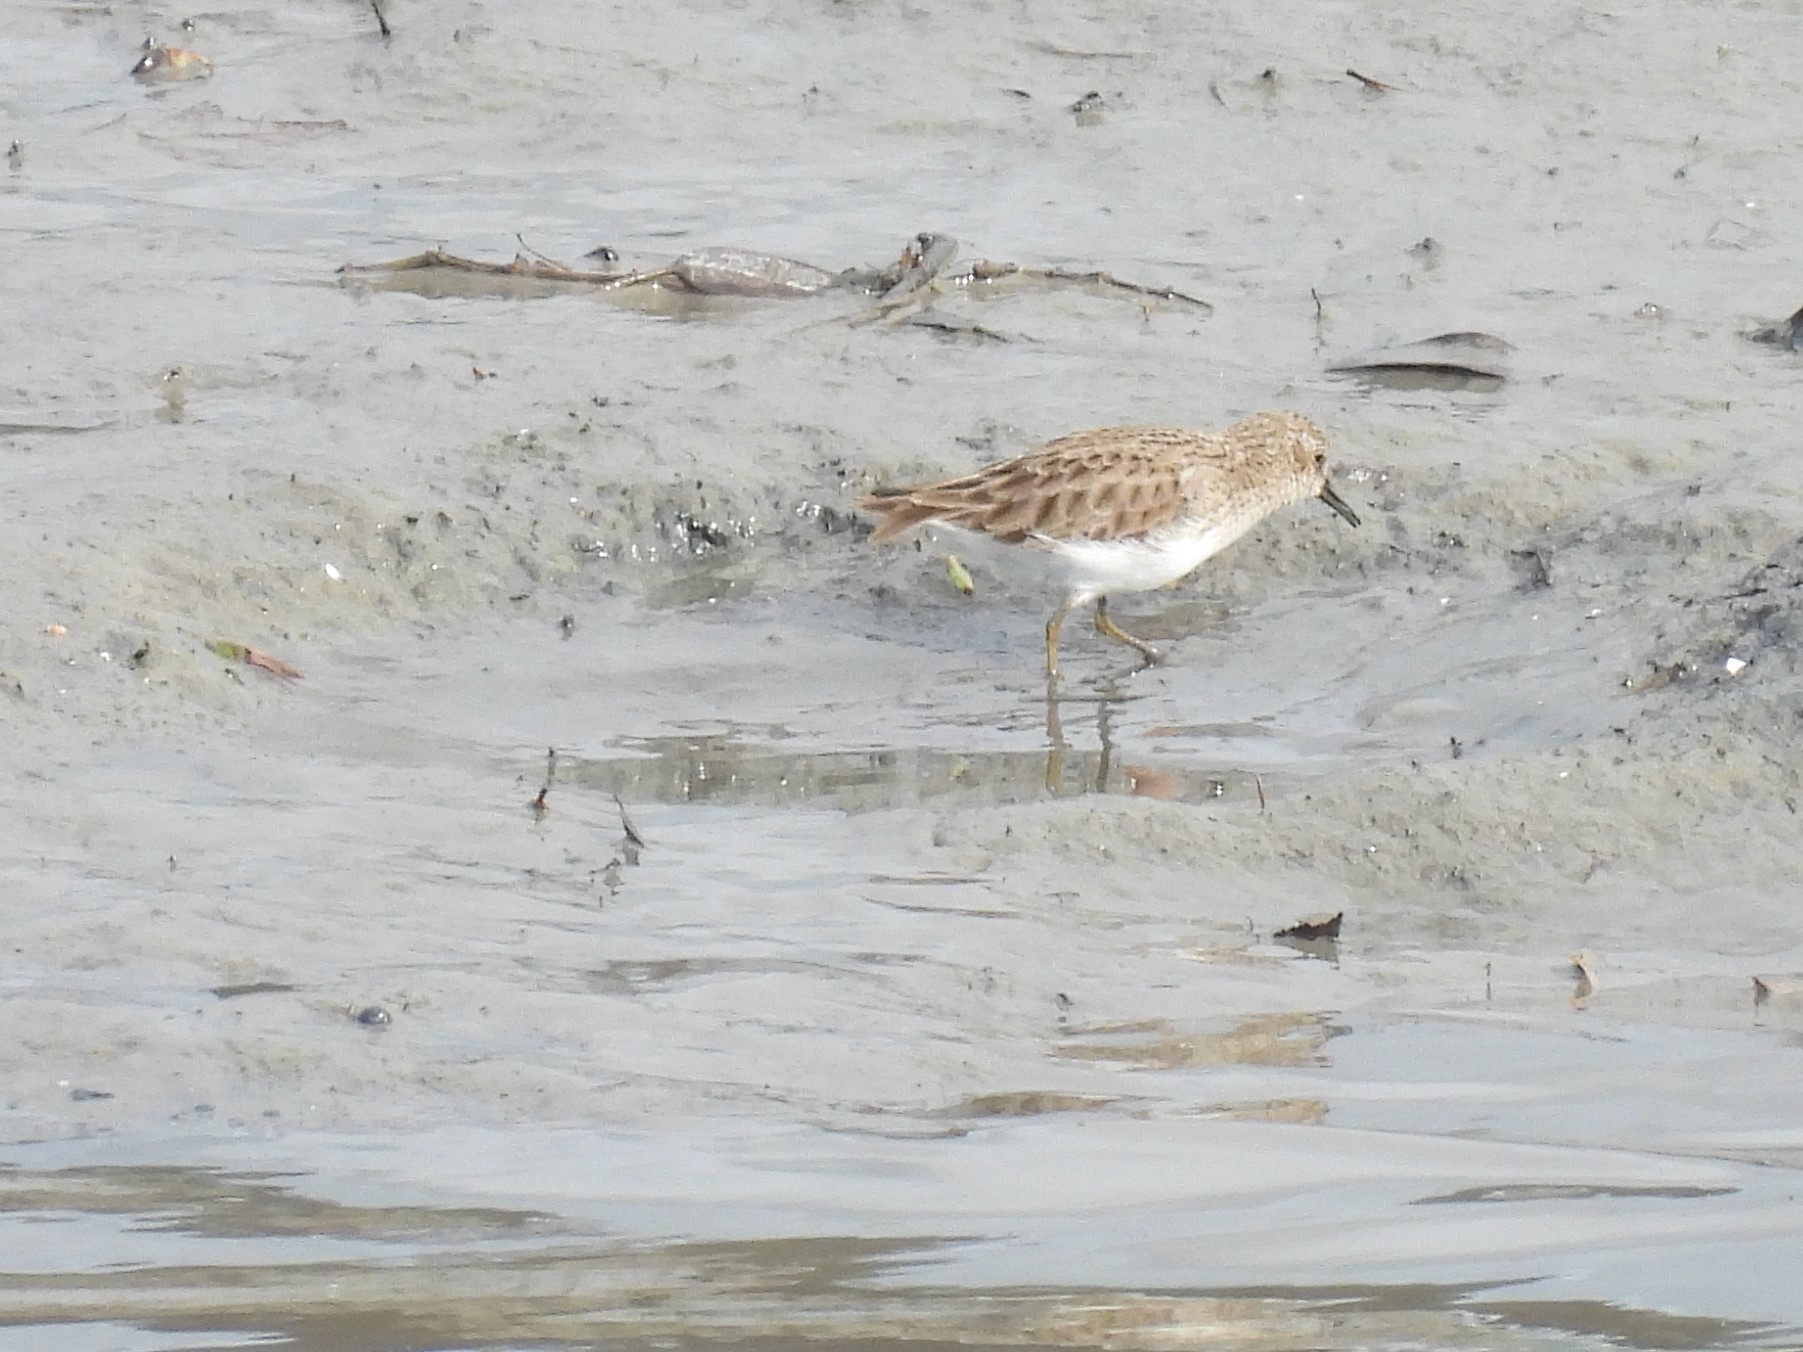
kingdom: Animalia
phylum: Chordata
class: Aves
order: Charadriiformes
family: Scolopacidae
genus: Calidris
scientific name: Calidris minutilla
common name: Least sandpiper
